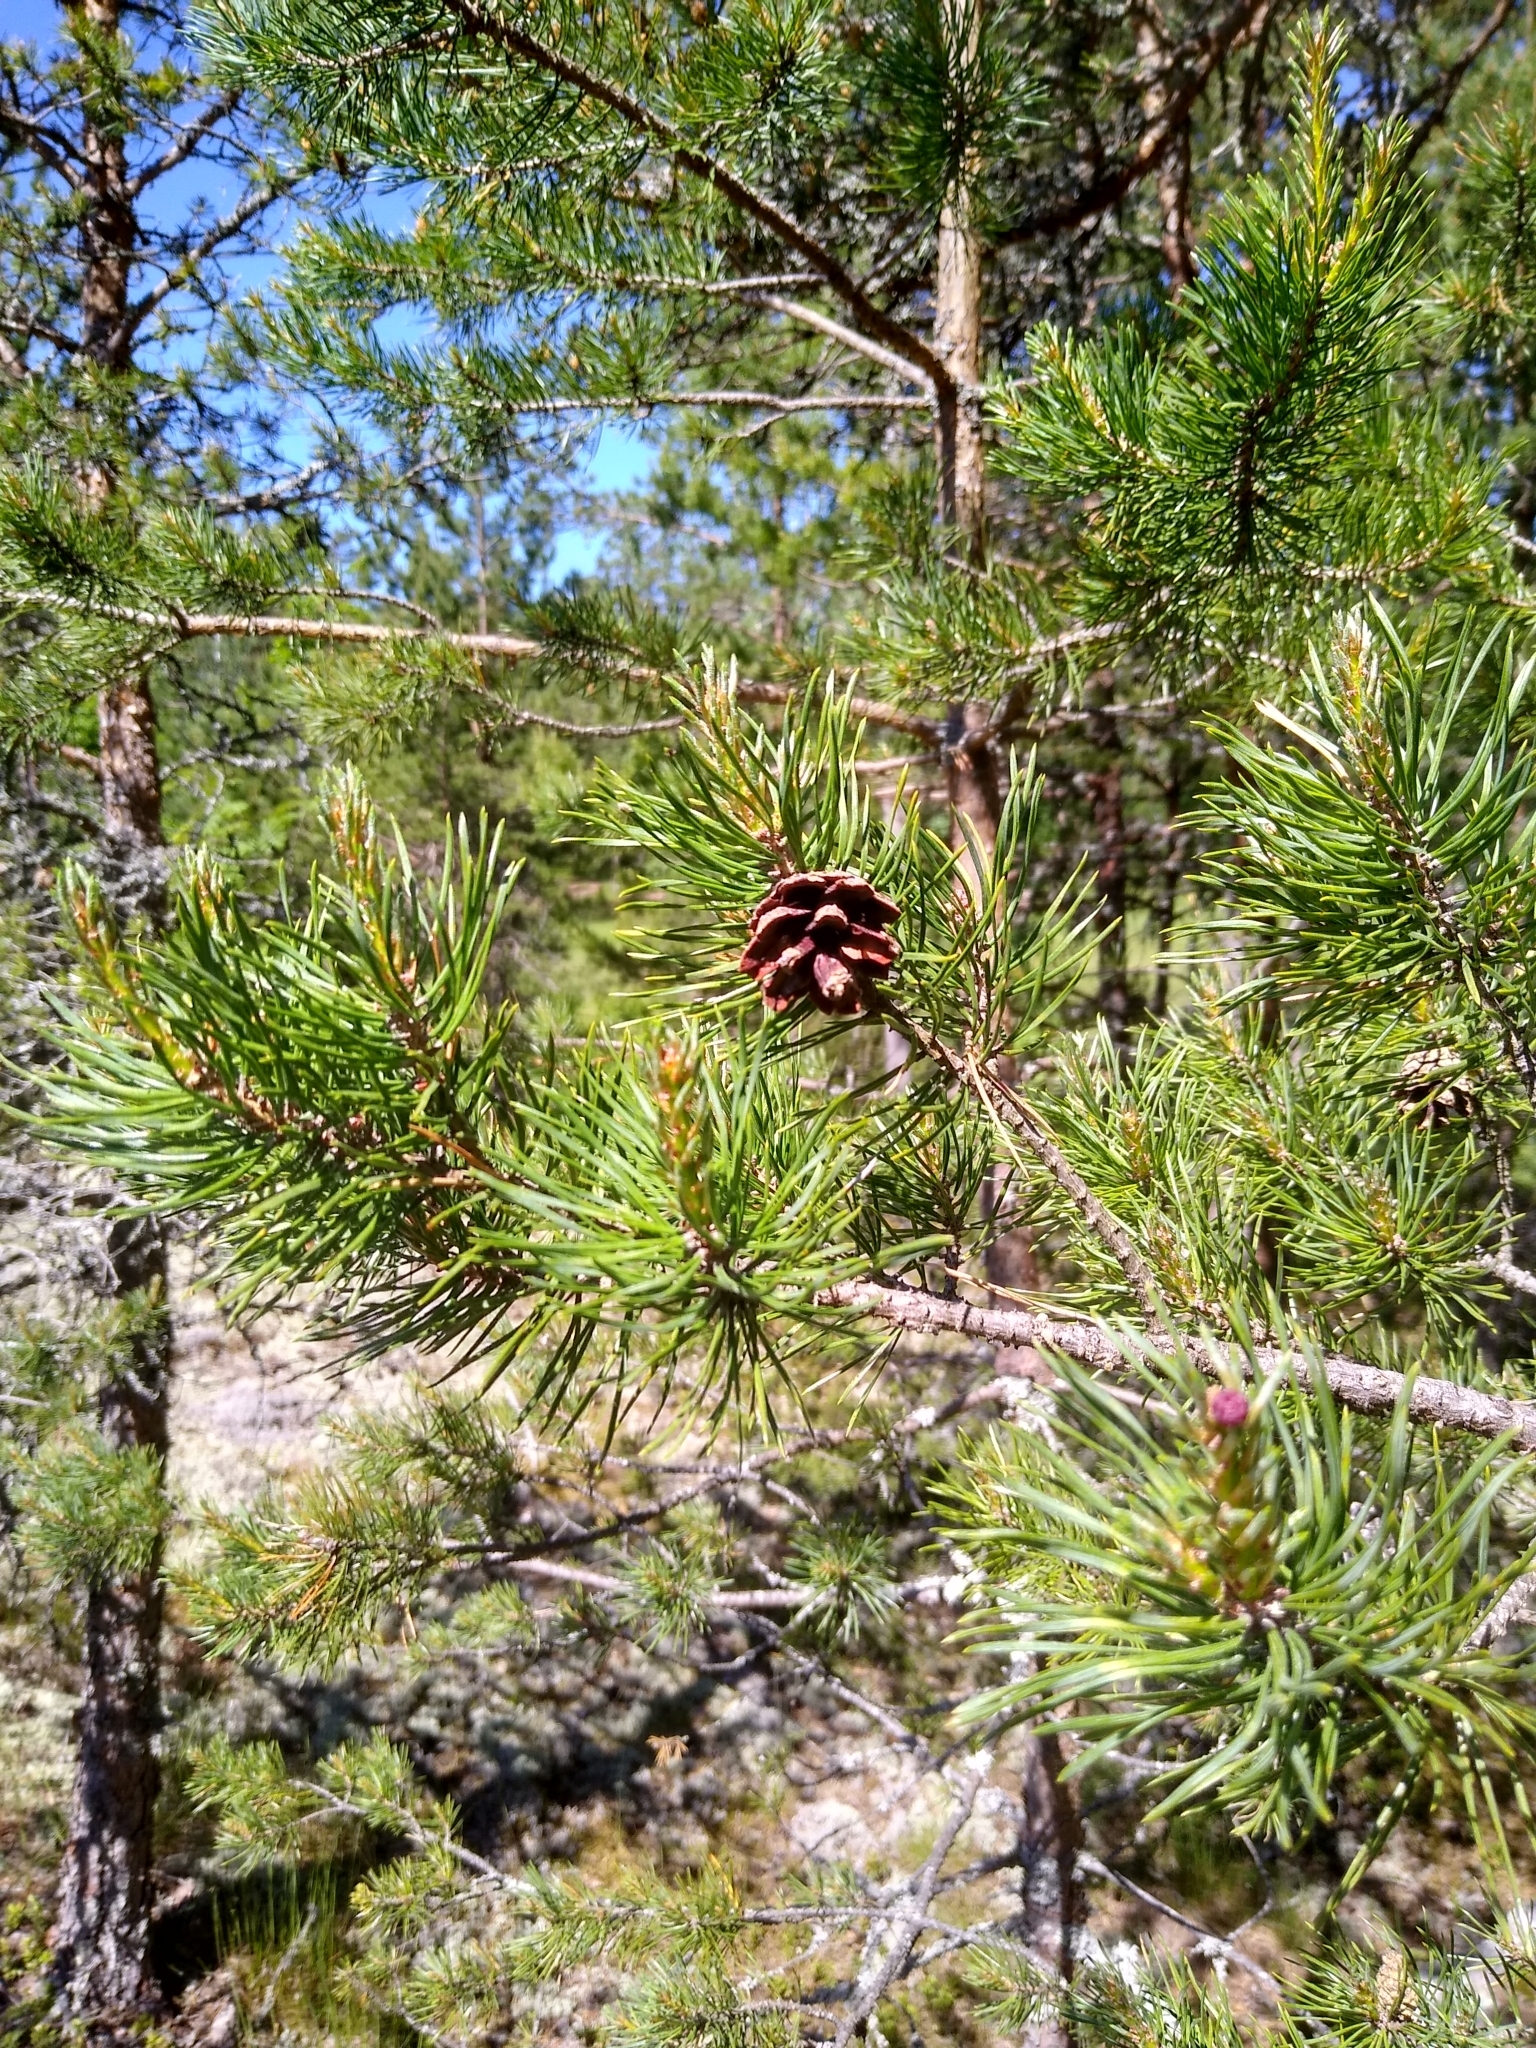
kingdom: Plantae
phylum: Tracheophyta
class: Pinopsida
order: Pinales
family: Pinaceae
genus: Pinus
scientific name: Pinus sylvestris
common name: Scots pine
